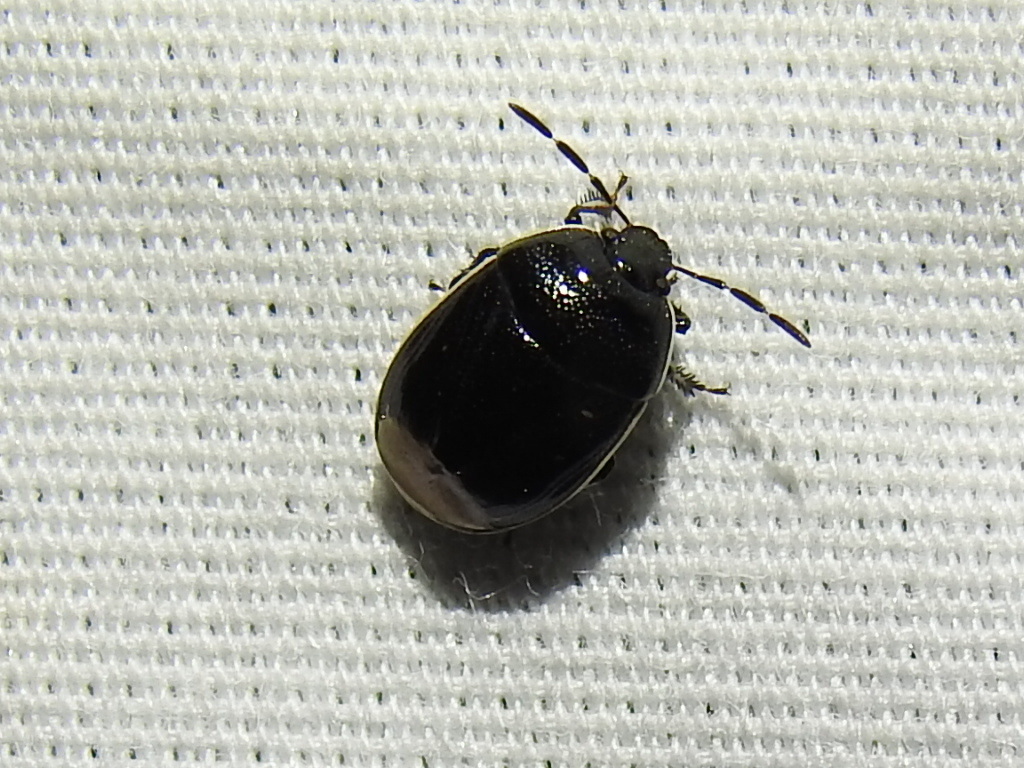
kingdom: Animalia
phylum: Arthropoda
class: Insecta
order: Hemiptera
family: Cydnidae
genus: Sehirus
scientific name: Sehirus cinctus
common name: White-margined burrower bug
